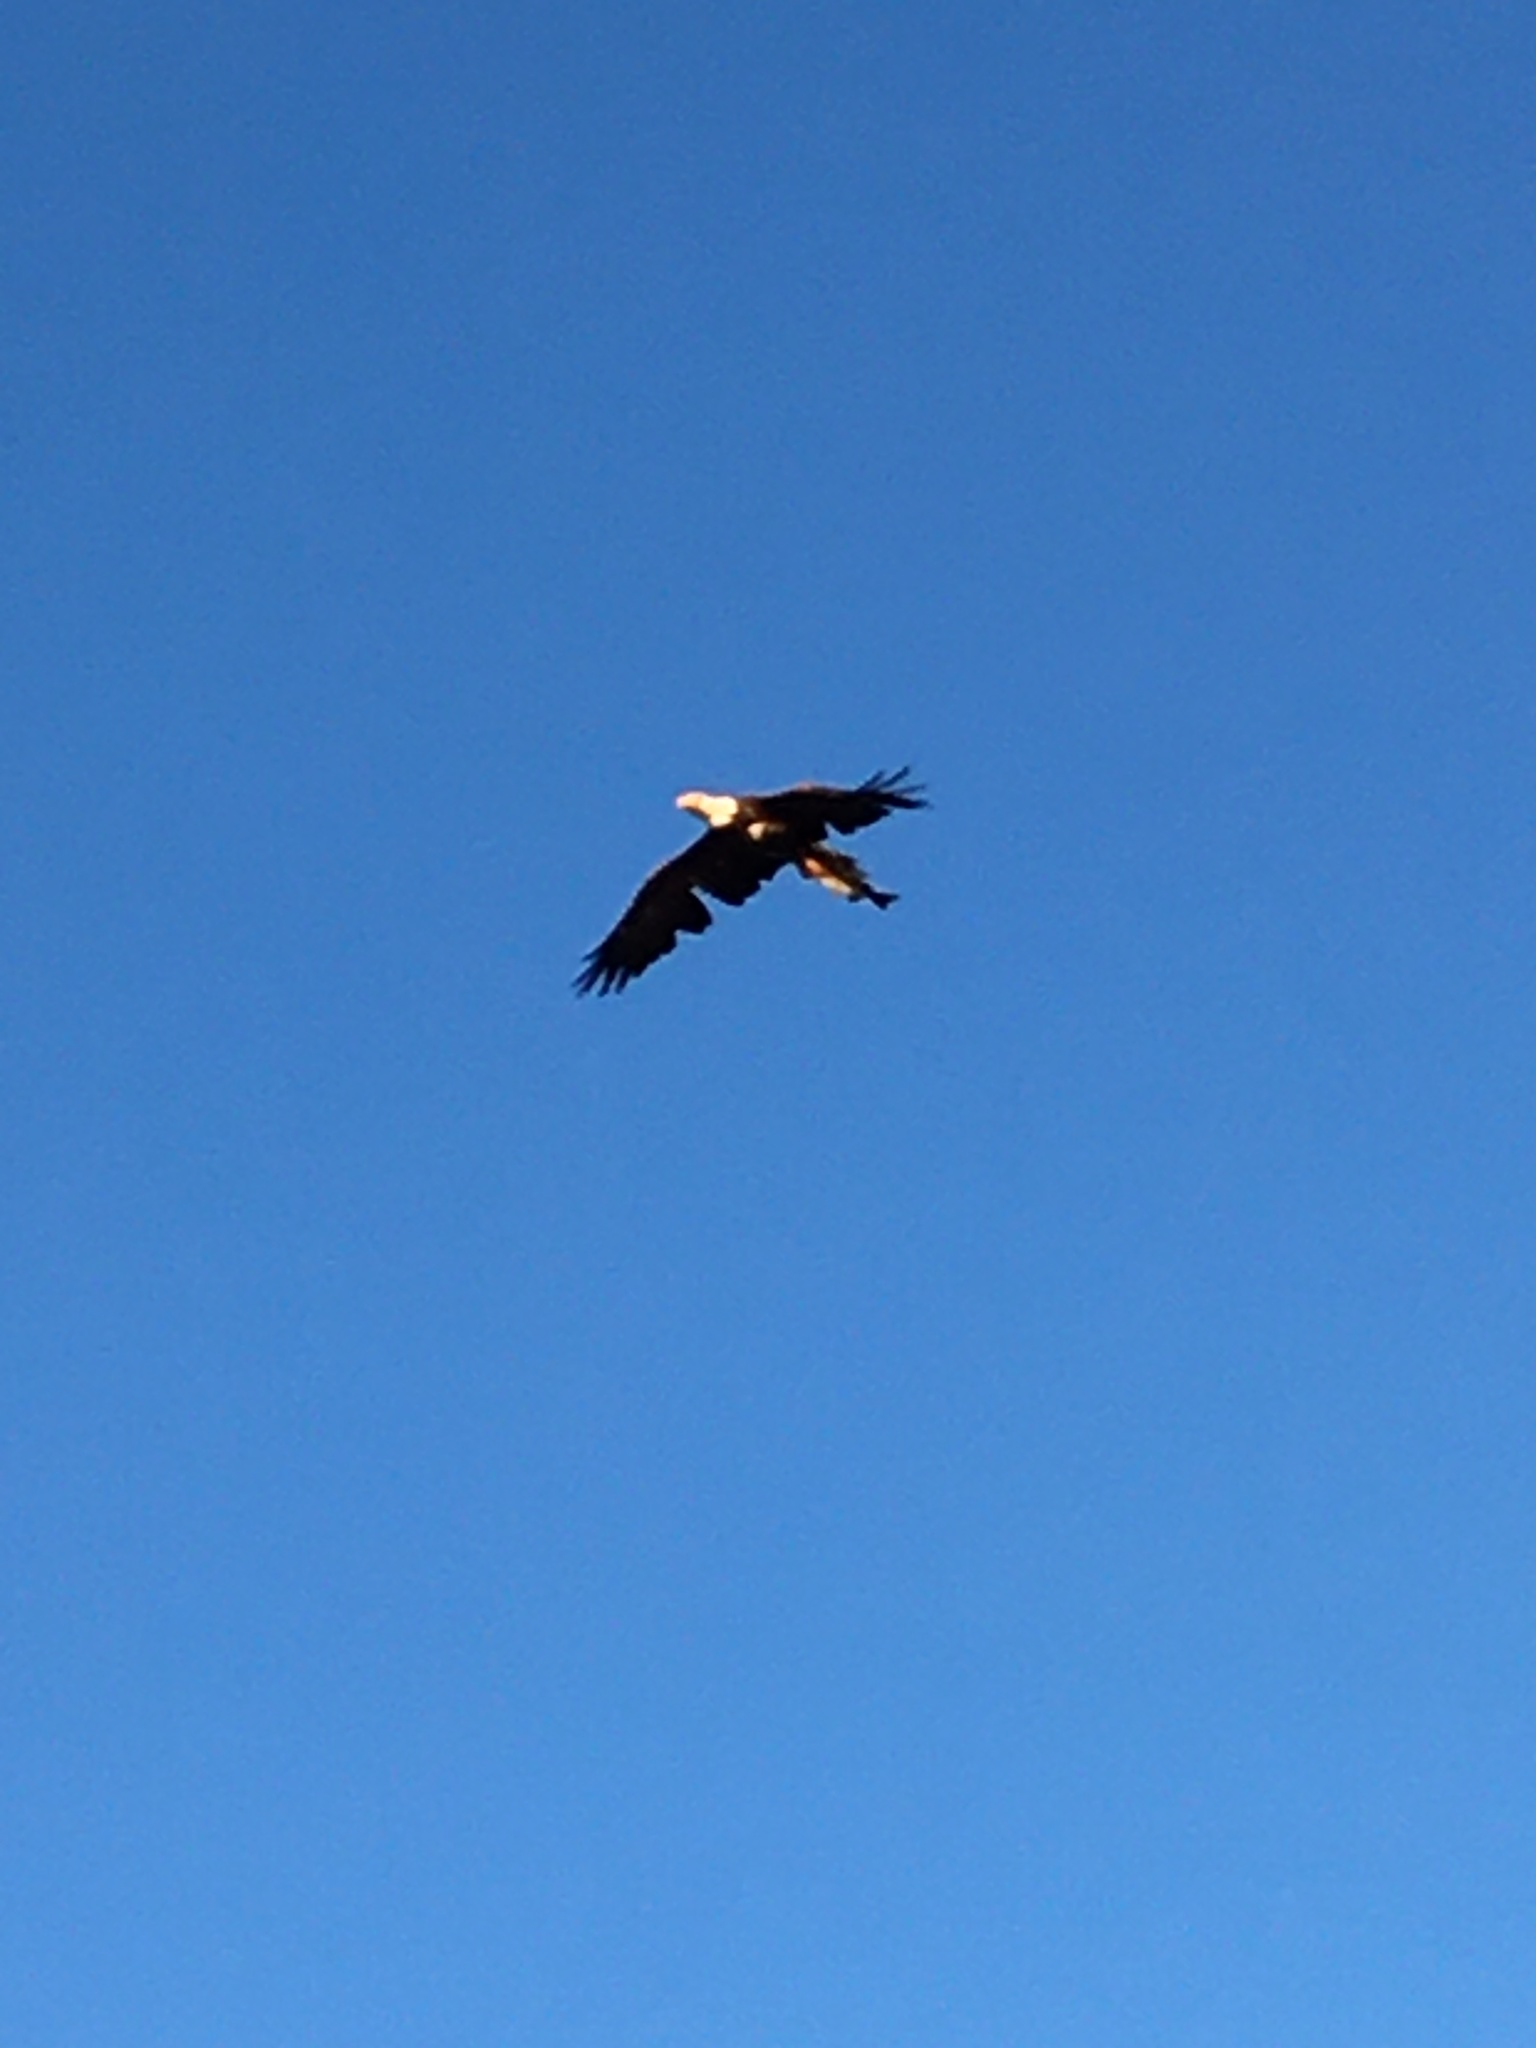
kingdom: Animalia
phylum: Chordata
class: Aves
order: Accipitriformes
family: Accipitridae
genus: Haliaeetus
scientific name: Haliaeetus leucocephalus
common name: Bald eagle
